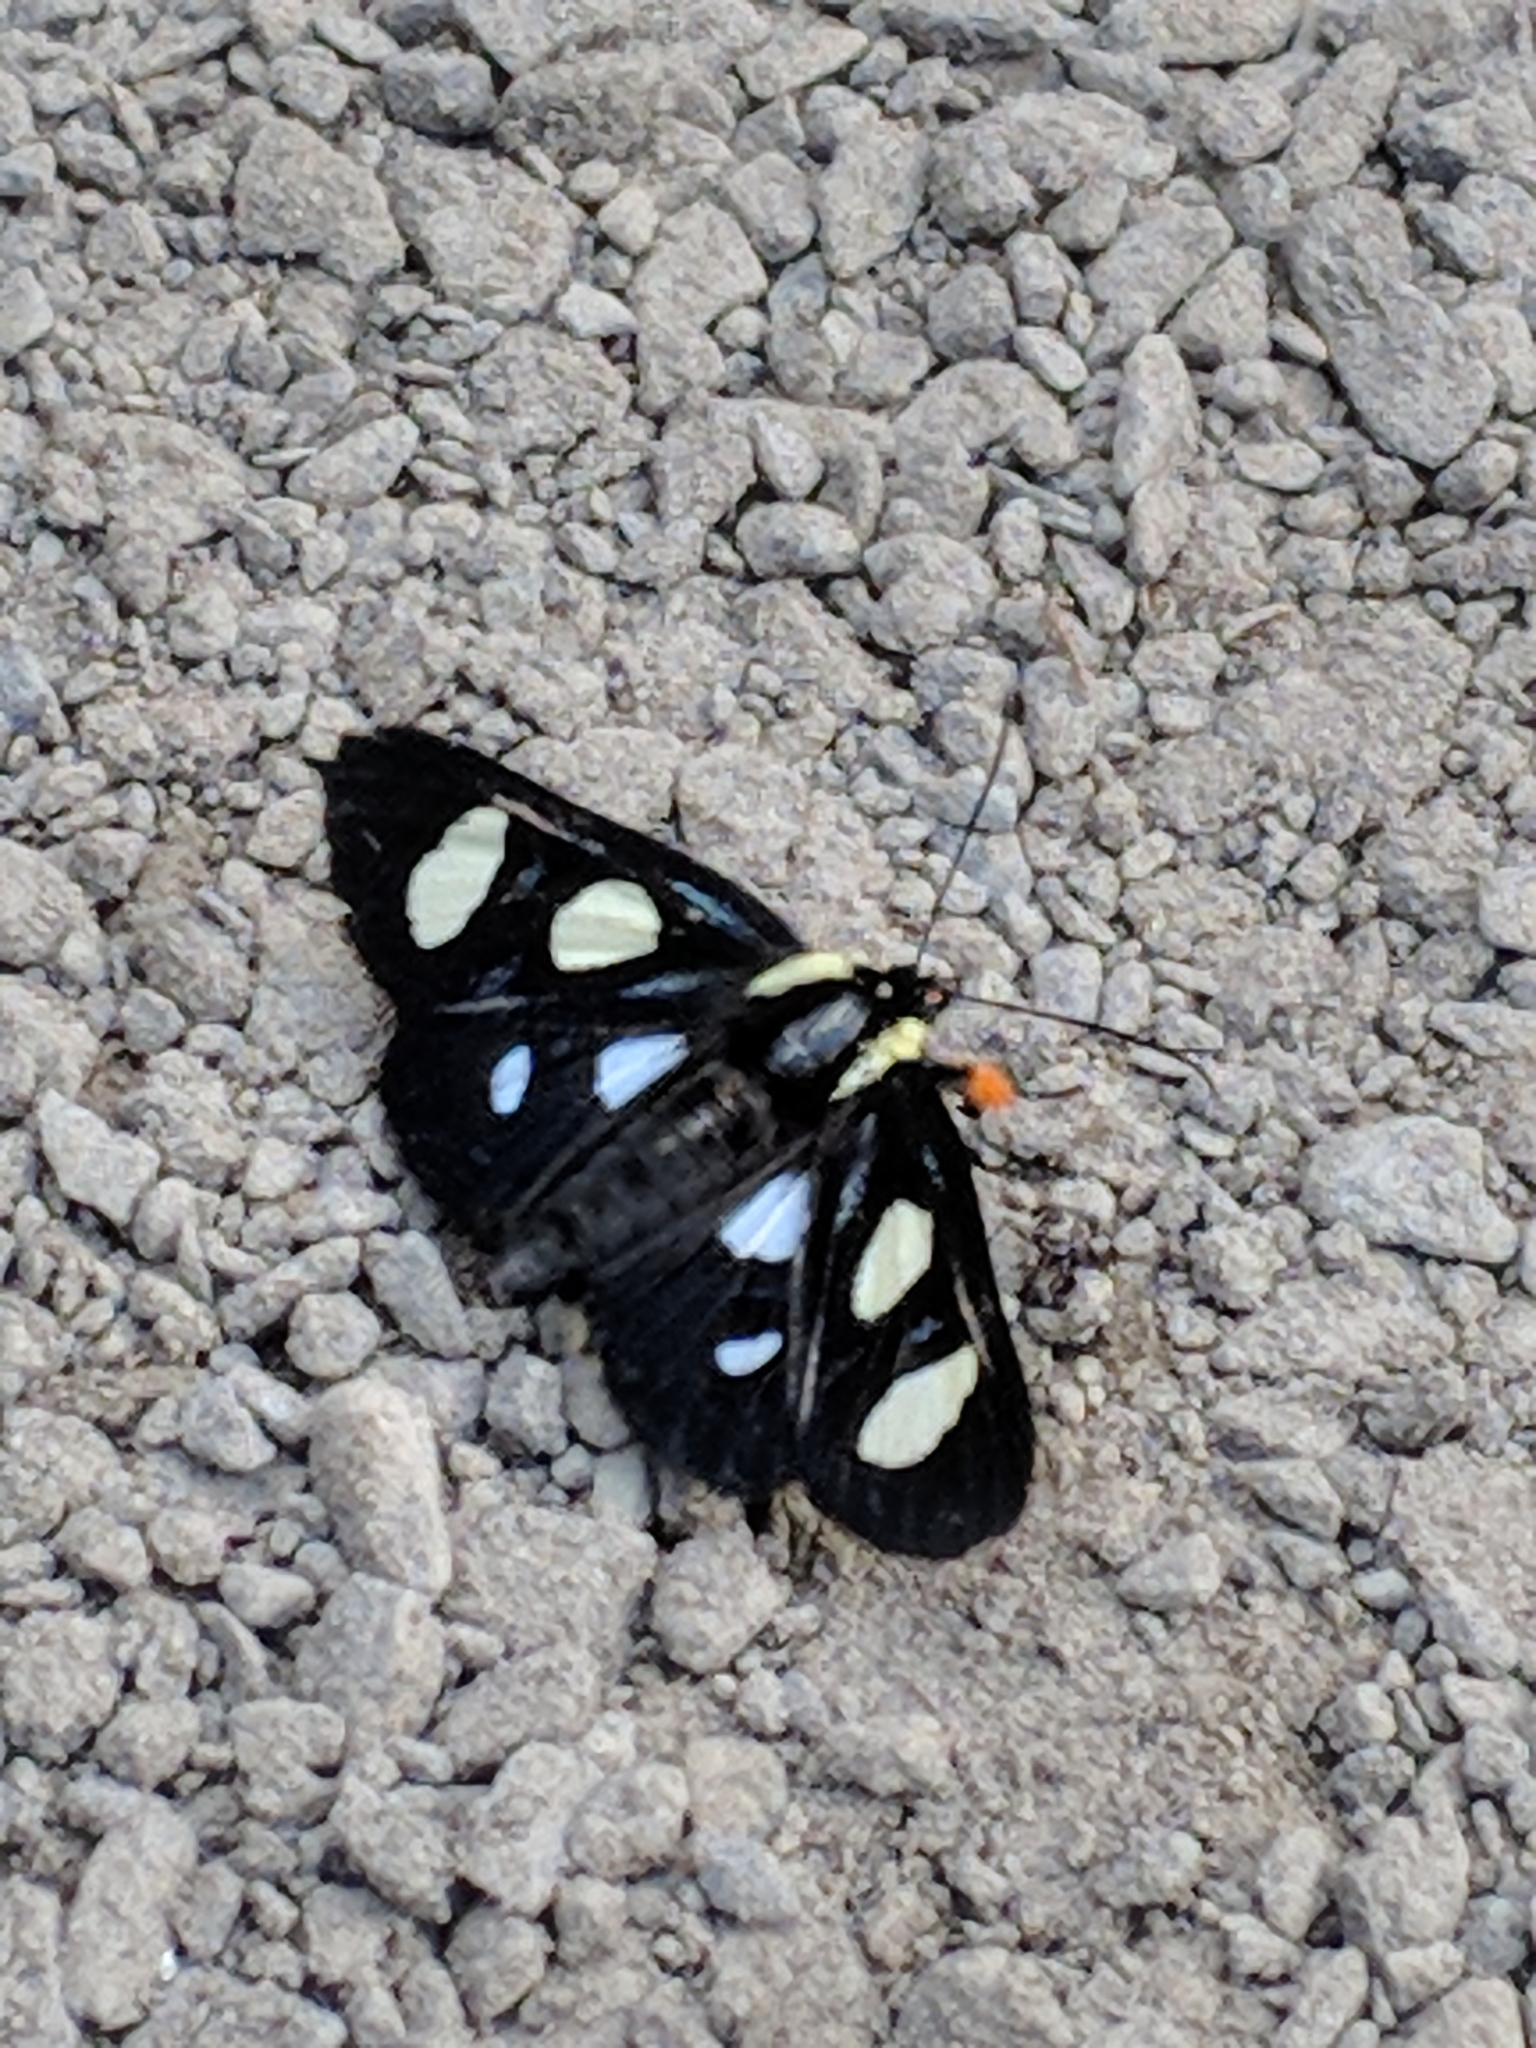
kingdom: Animalia
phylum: Arthropoda
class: Insecta
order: Lepidoptera
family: Noctuidae
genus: Alypia
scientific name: Alypia octomaculata
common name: Eight-spotted forester
